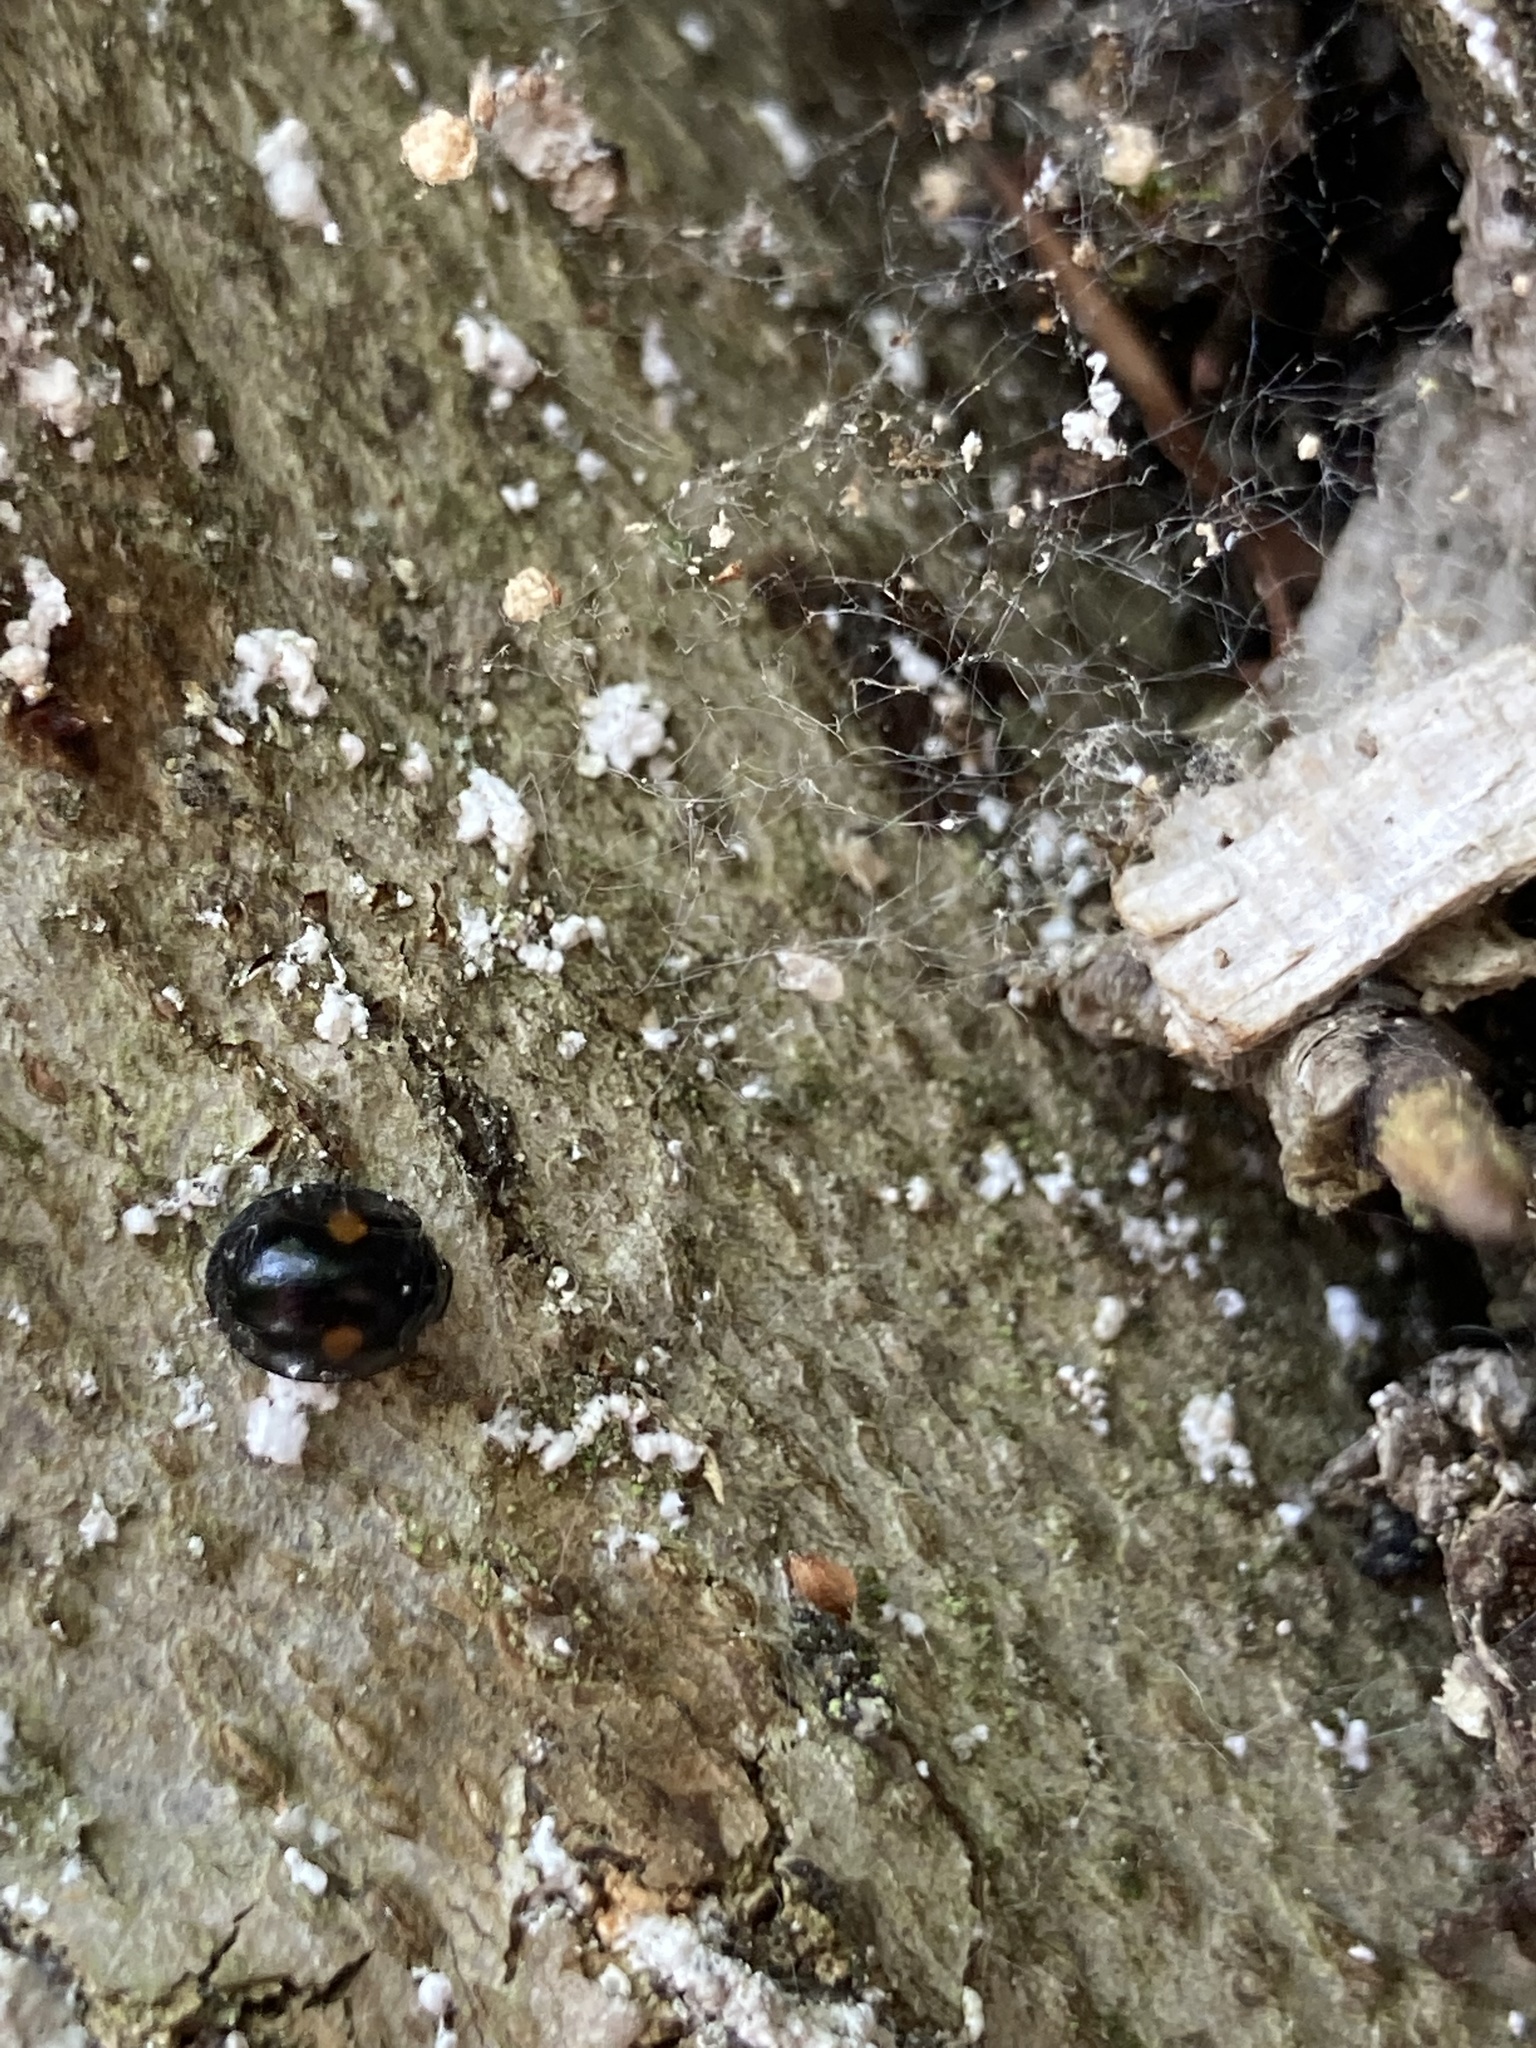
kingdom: Animalia
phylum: Arthropoda
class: Insecta
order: Coleoptera
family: Coccinellidae
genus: Chilocorus
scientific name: Chilocorus stigma
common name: Twicestabbed lady beetle
